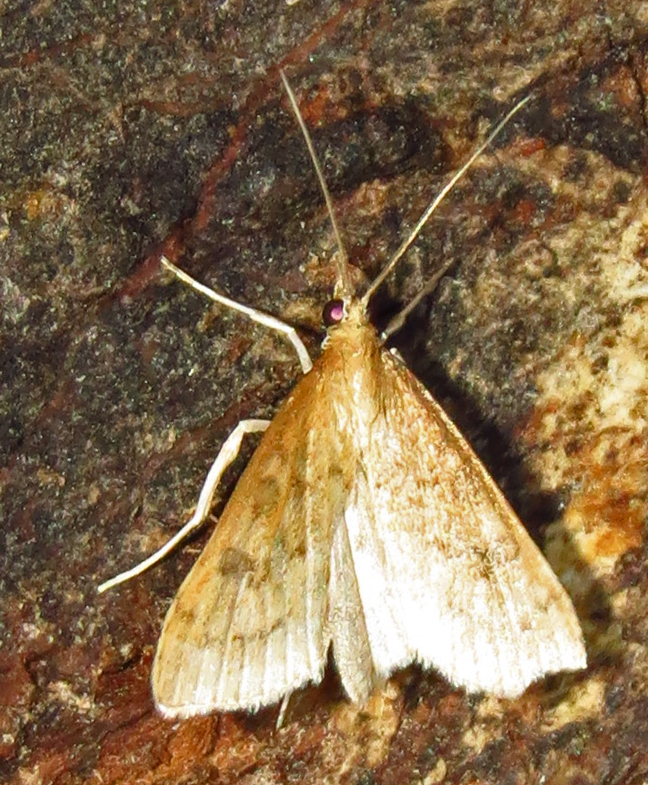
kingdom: Animalia
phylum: Arthropoda
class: Insecta
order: Lepidoptera
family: Crambidae
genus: Udea
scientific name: Udea rubigalis
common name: Celery leaftier moth
